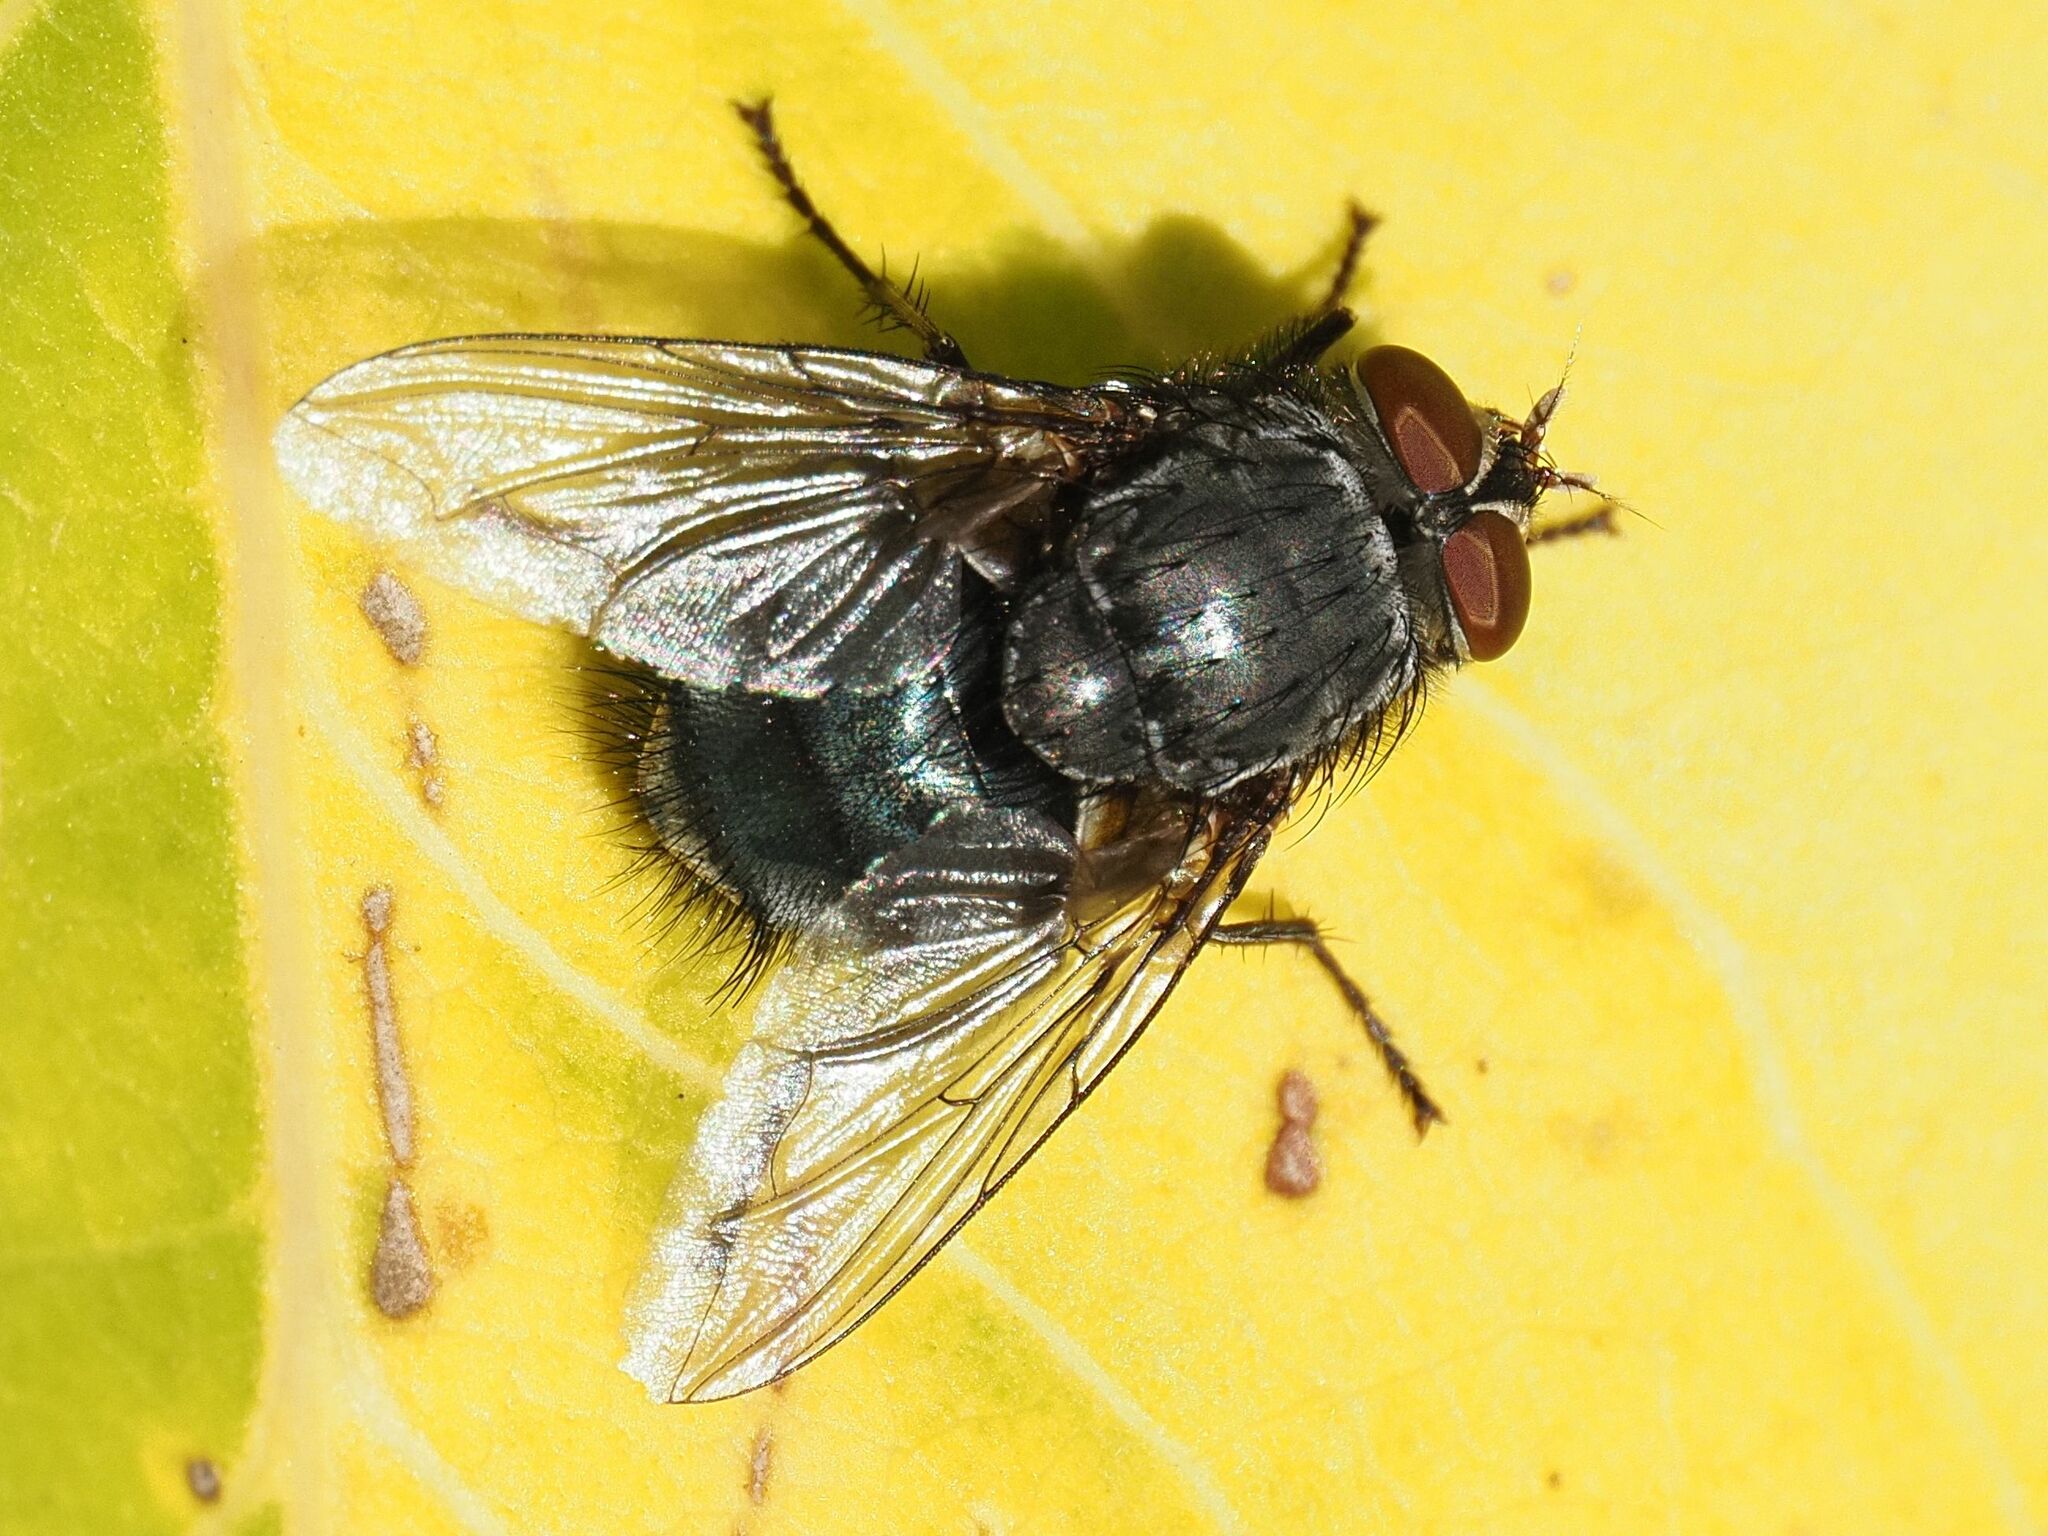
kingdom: Animalia
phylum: Arthropoda
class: Insecta
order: Diptera
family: Calliphoridae
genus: Calliphora
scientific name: Calliphora vicina
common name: Common blow flie
